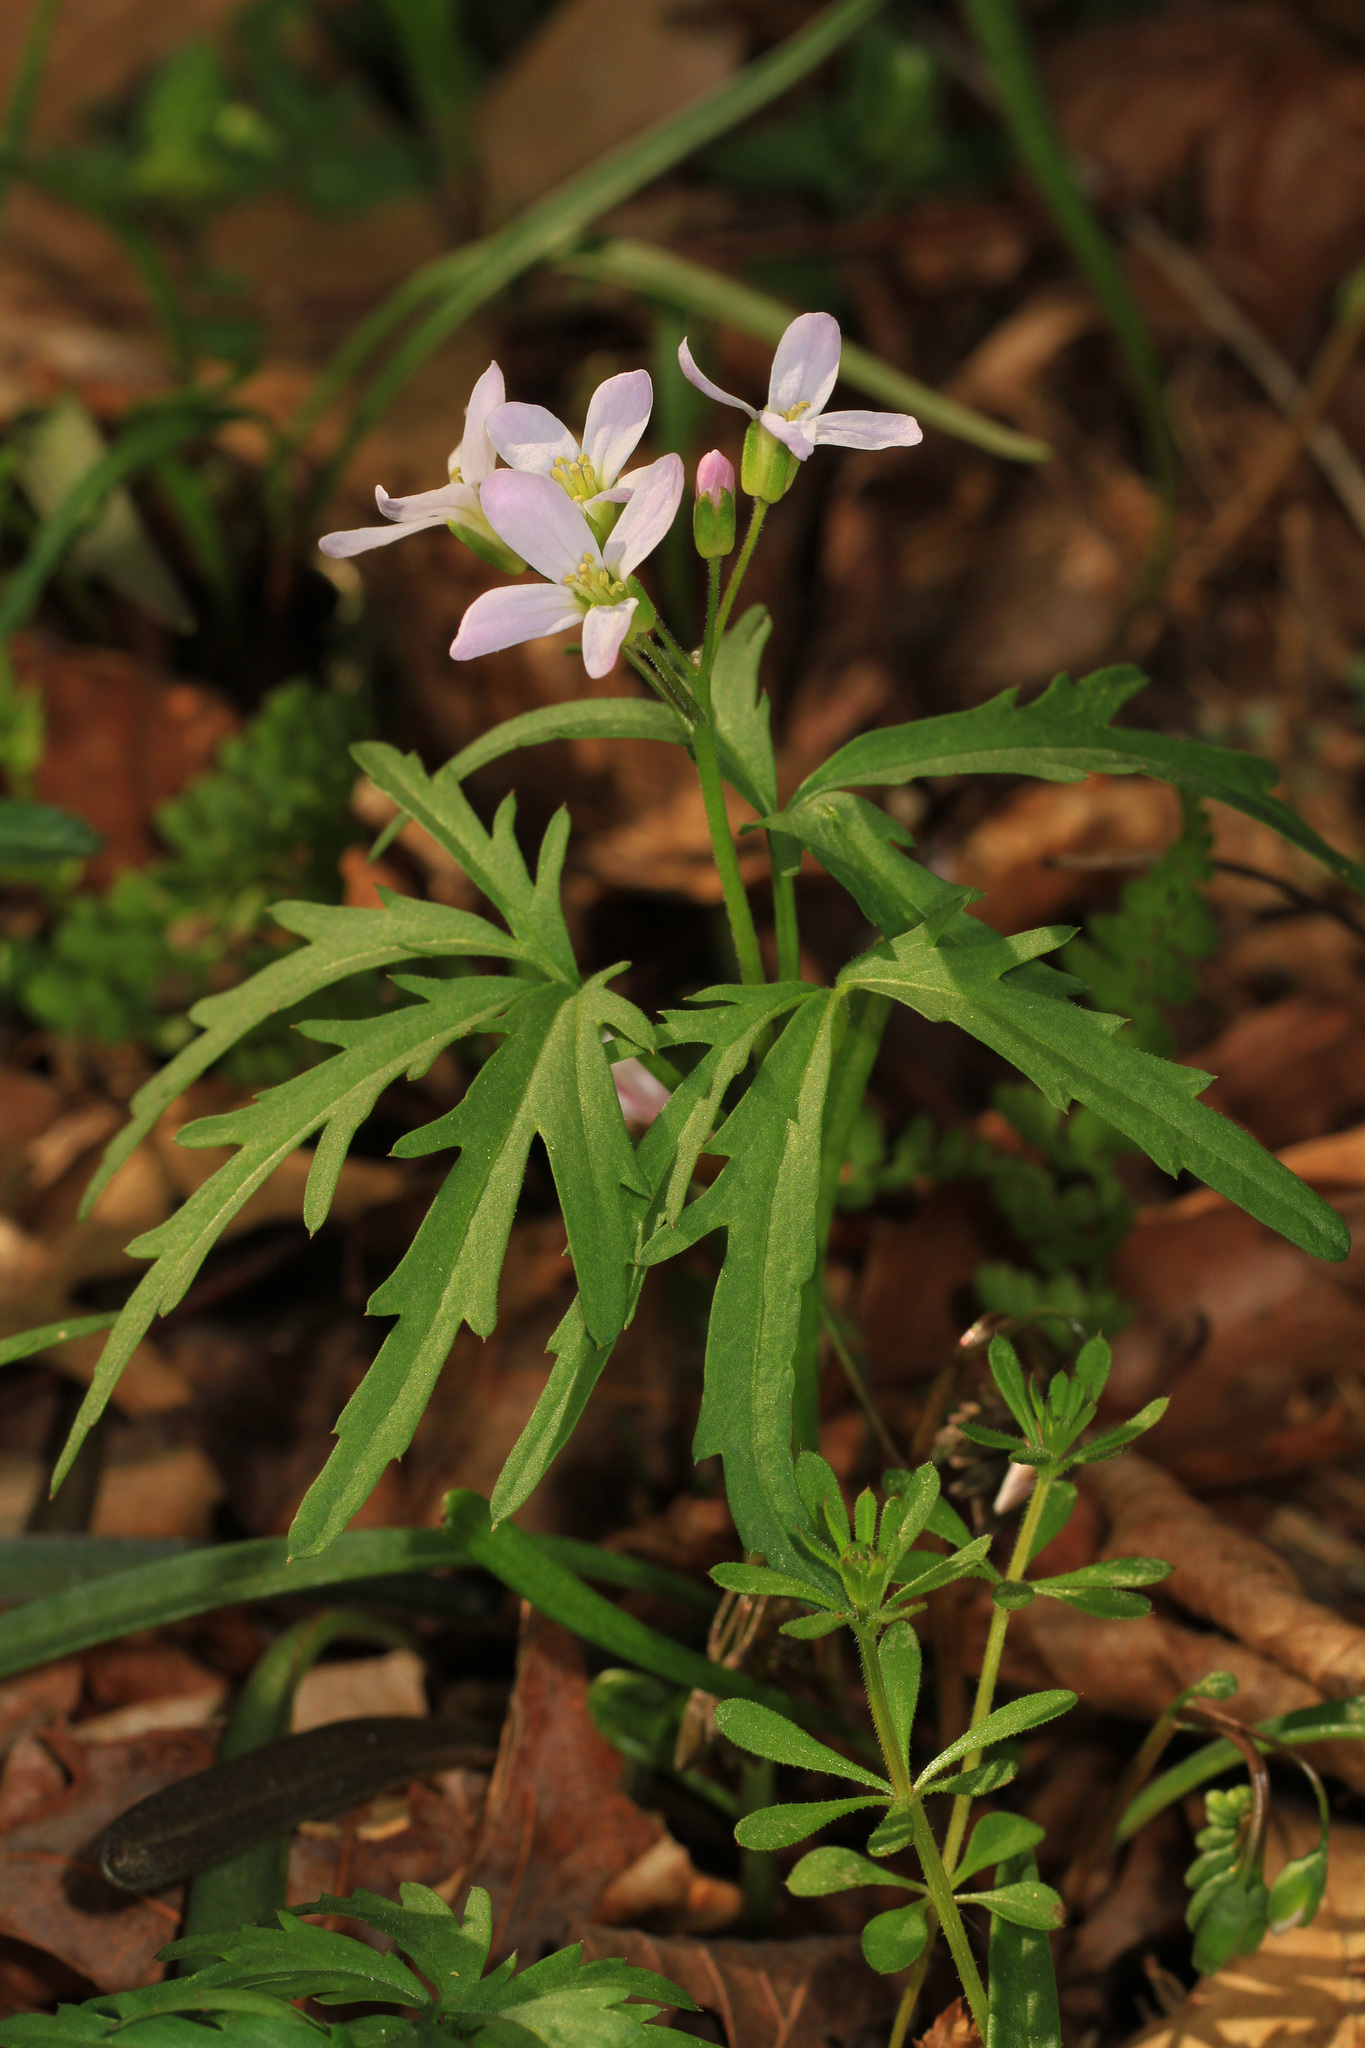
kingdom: Plantae
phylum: Tracheophyta
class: Magnoliopsida
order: Brassicales
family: Brassicaceae
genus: Cardamine
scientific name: Cardamine concatenata
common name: Cut-leaf toothcup
